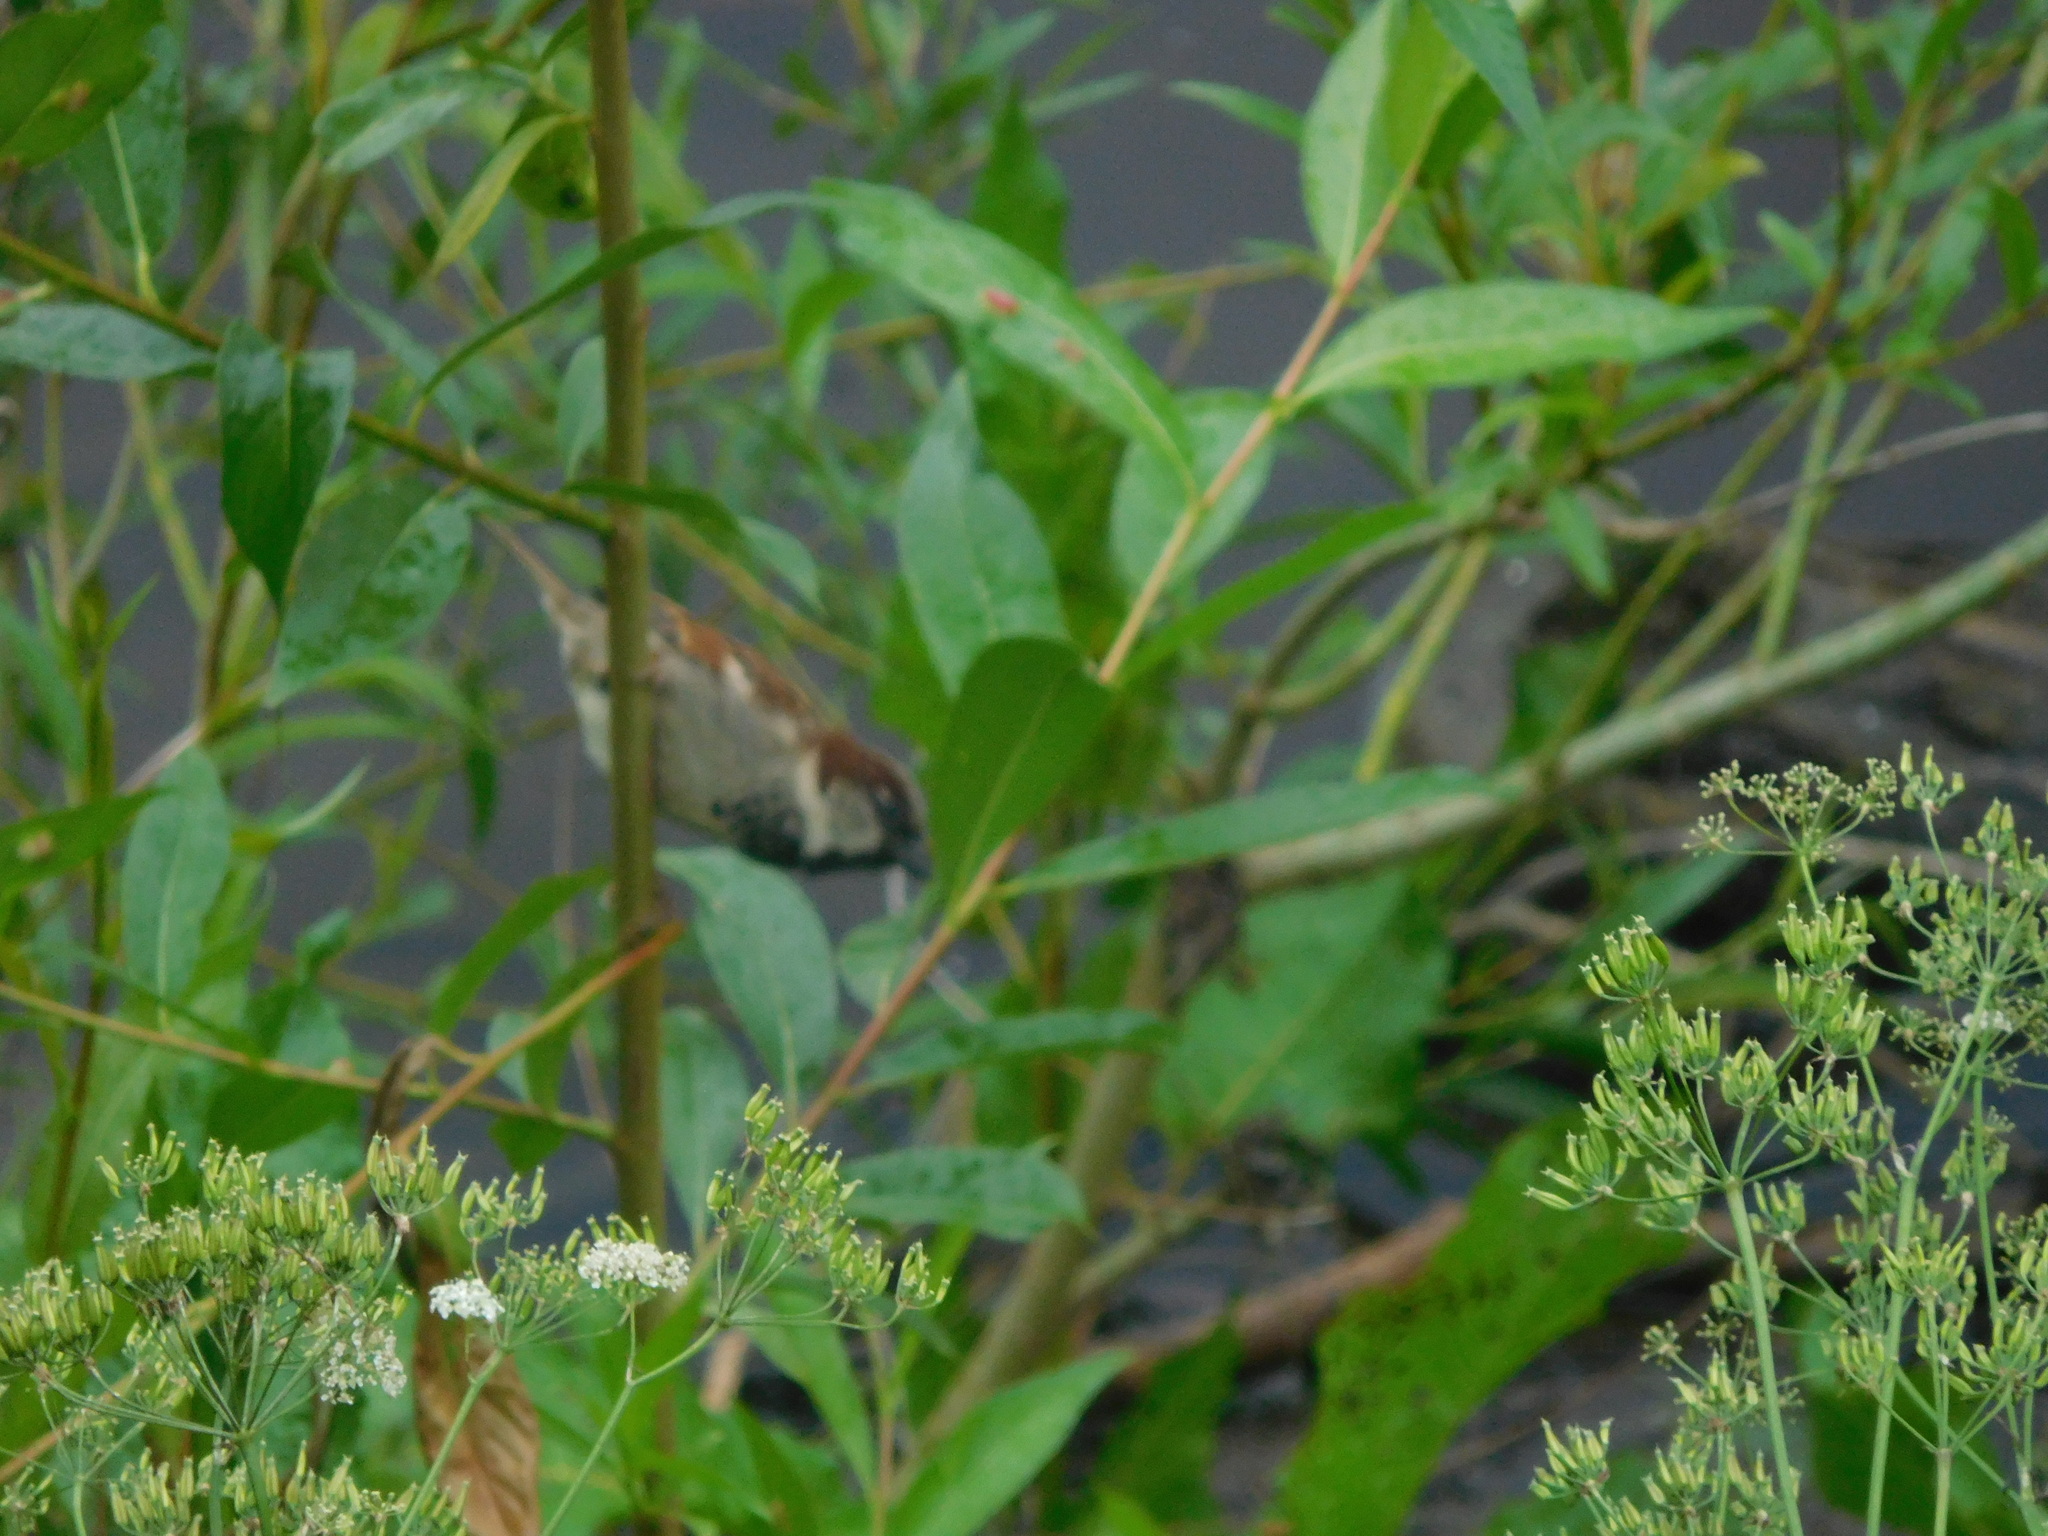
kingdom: Animalia
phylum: Chordata
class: Aves
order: Passeriformes
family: Passeridae
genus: Passer
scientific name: Passer domesticus
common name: House sparrow
